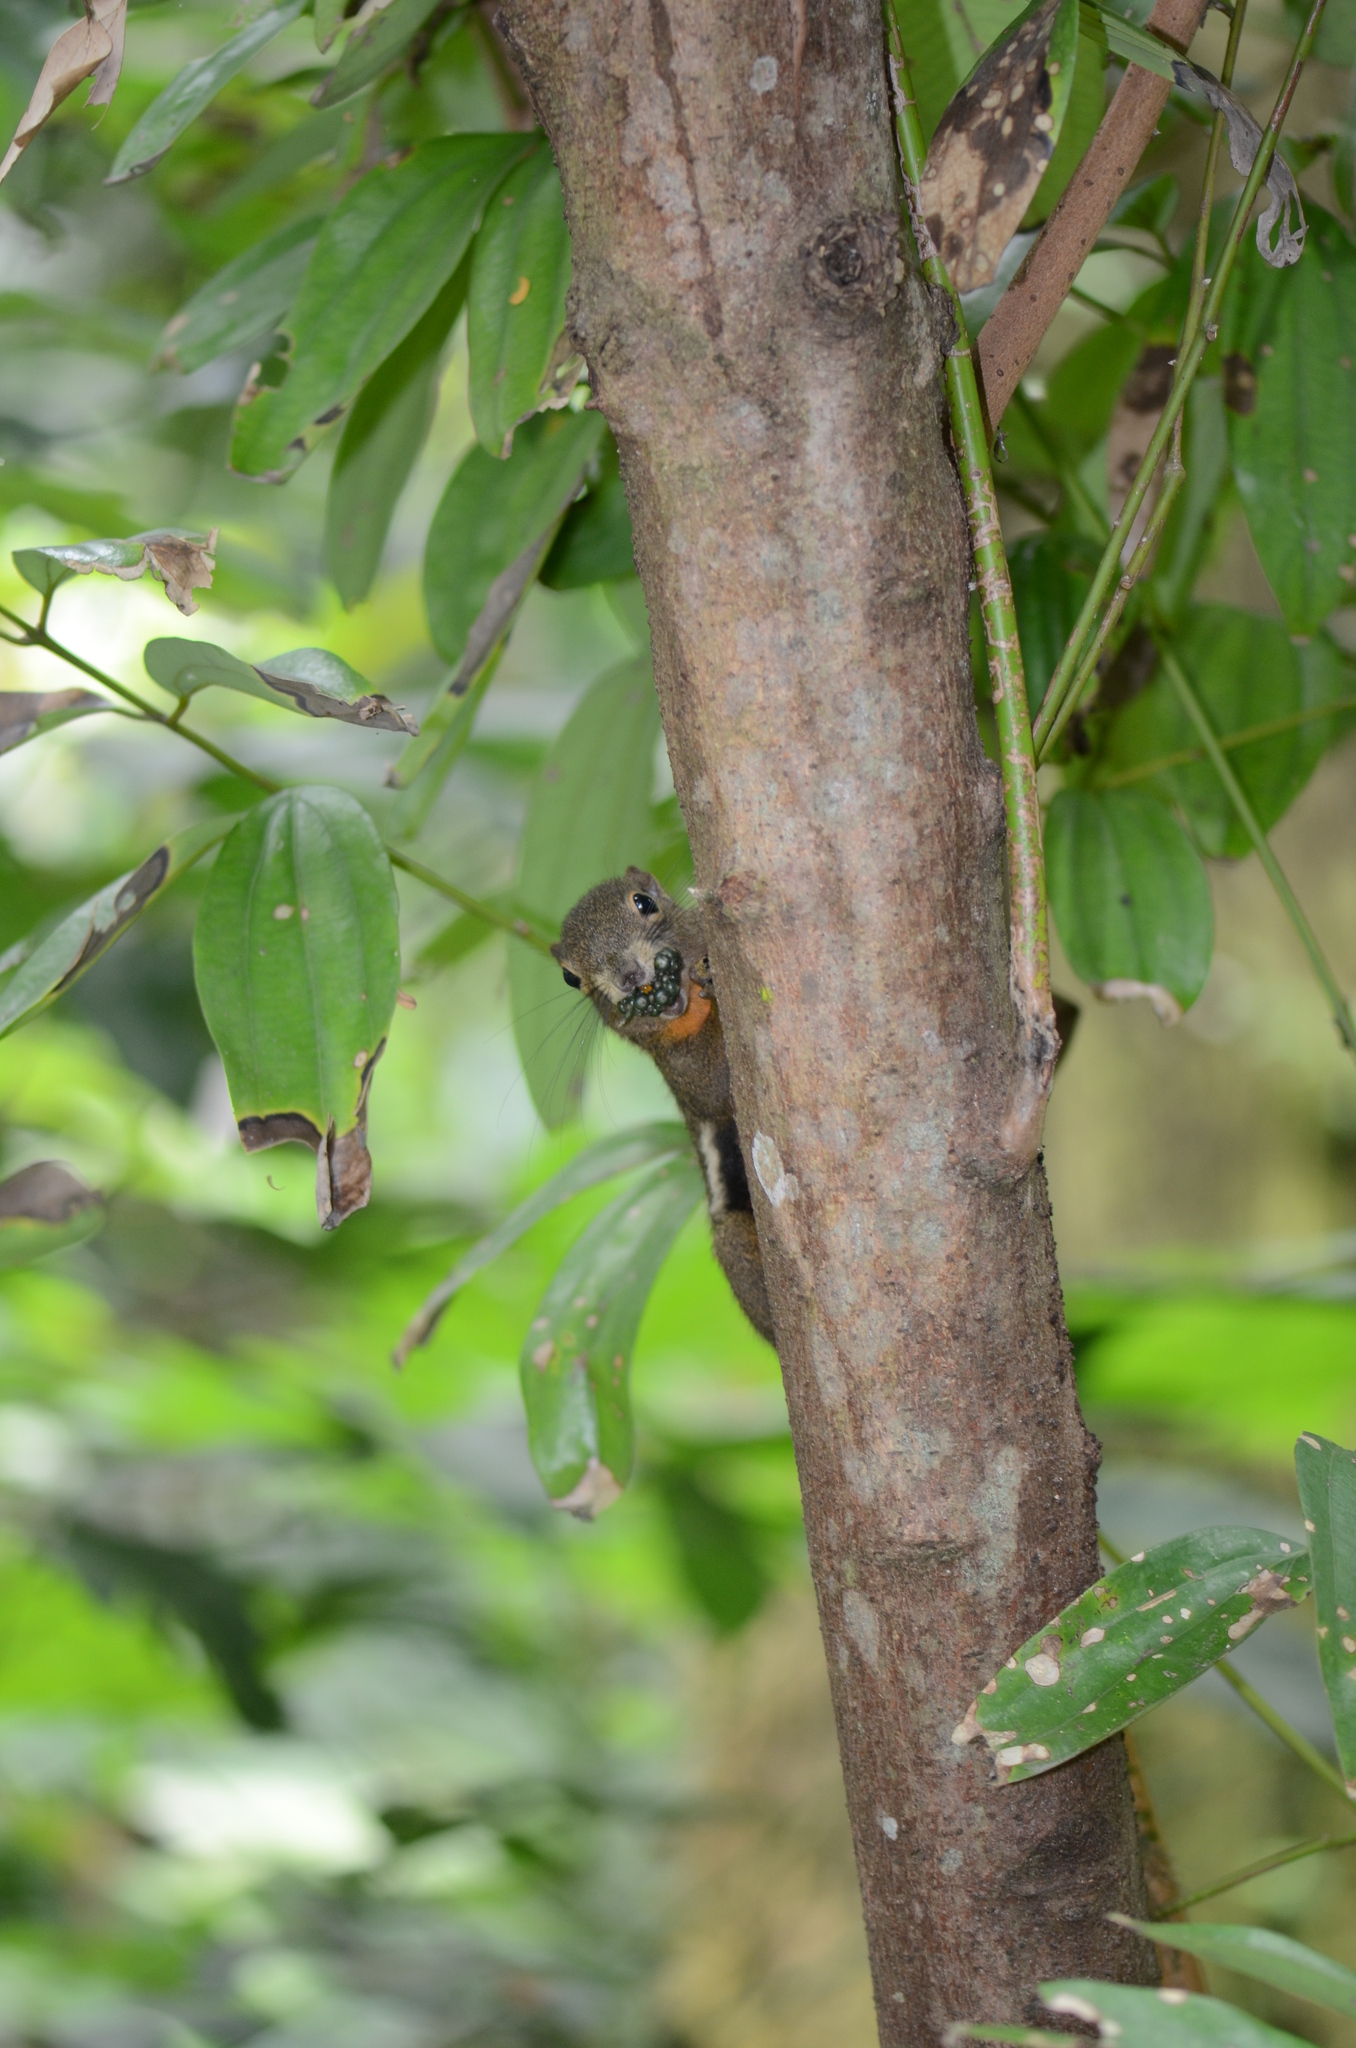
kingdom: Animalia
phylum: Chordata
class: Mammalia
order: Rodentia
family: Sciuridae
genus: Callosciurus
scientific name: Callosciurus notatus
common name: Plantain squirrel
